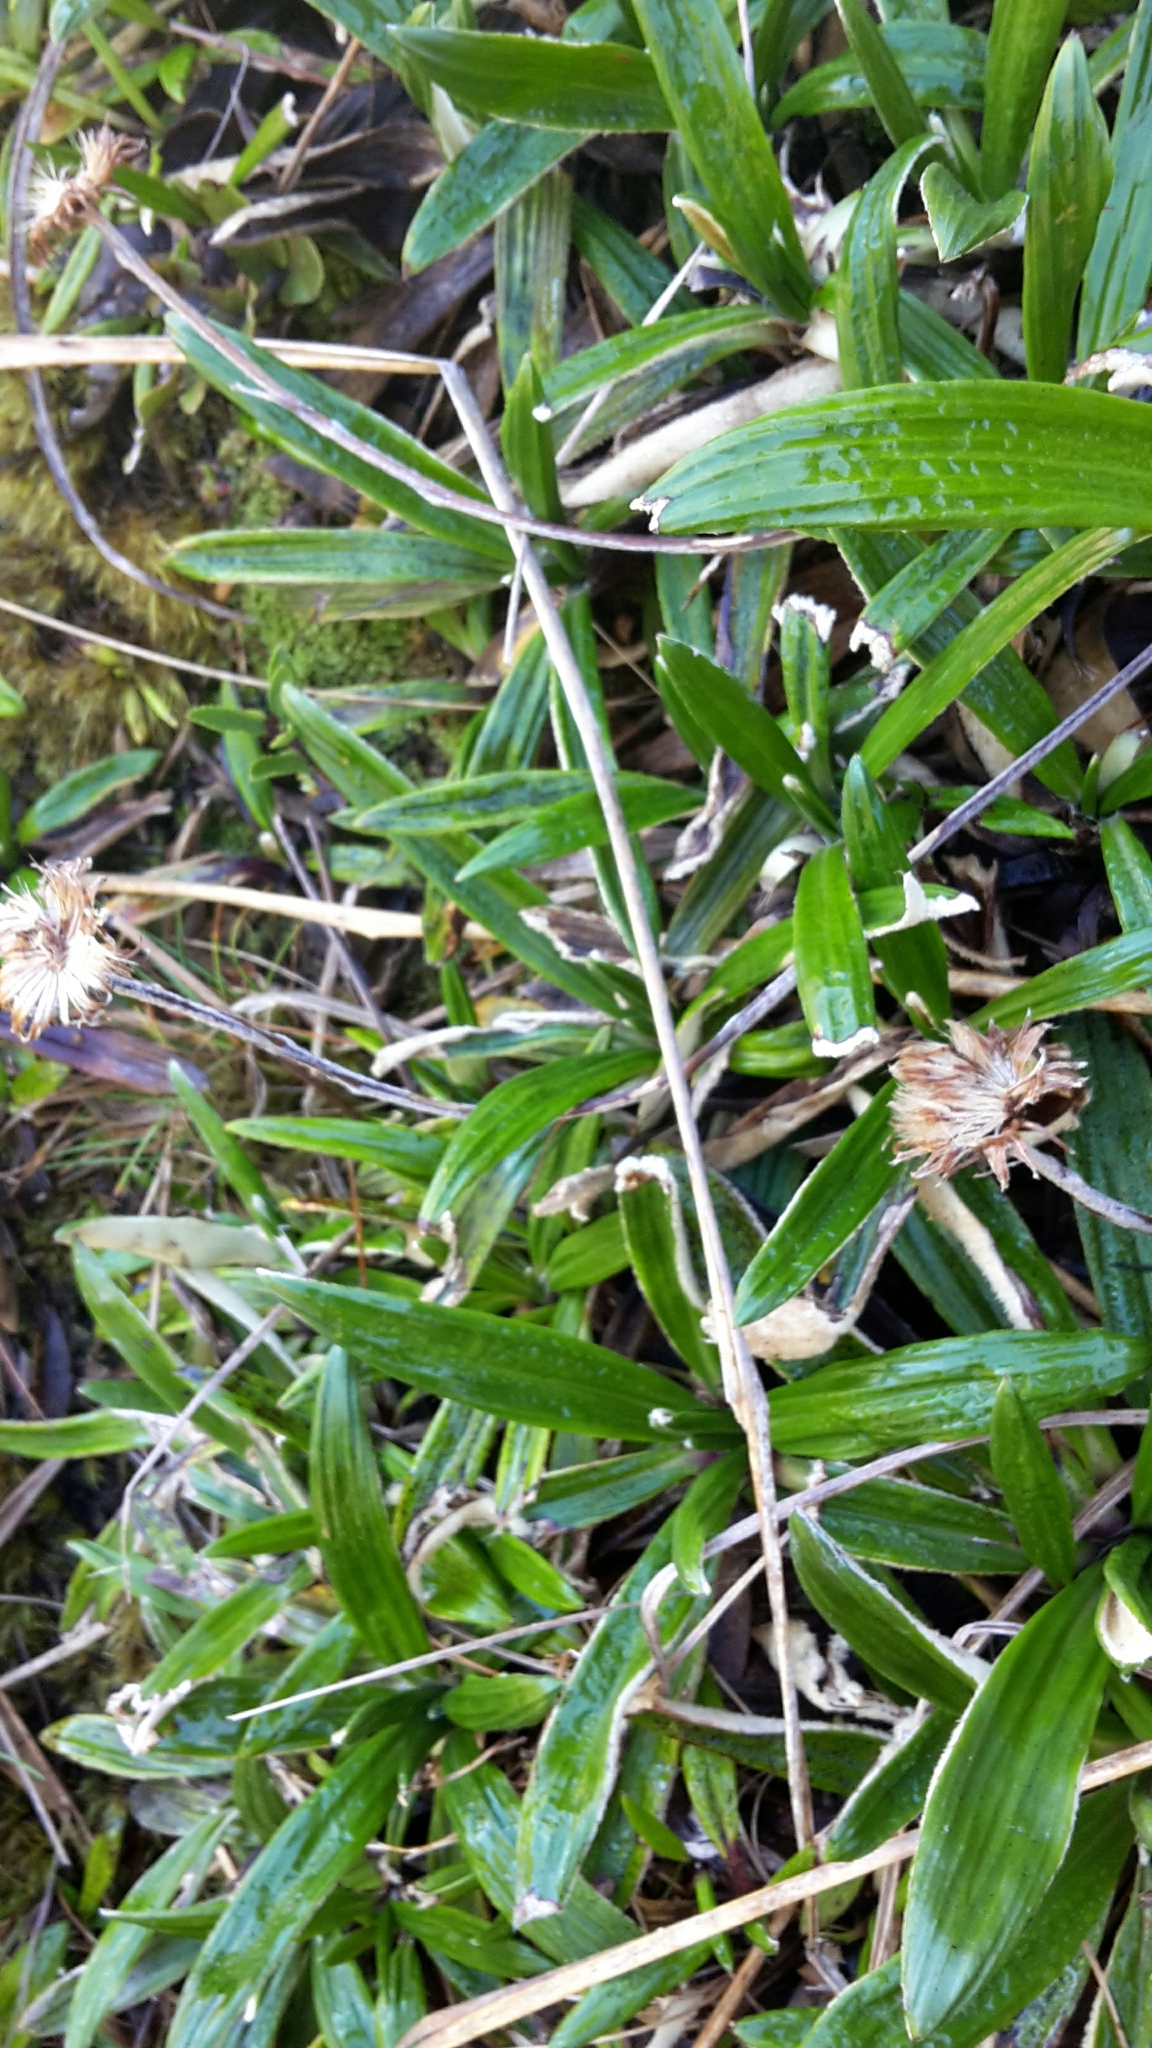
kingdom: Plantae
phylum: Tracheophyta
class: Magnoliopsida
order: Asterales
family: Asteraceae
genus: Celmisia
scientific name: Celmisia spectabilis
